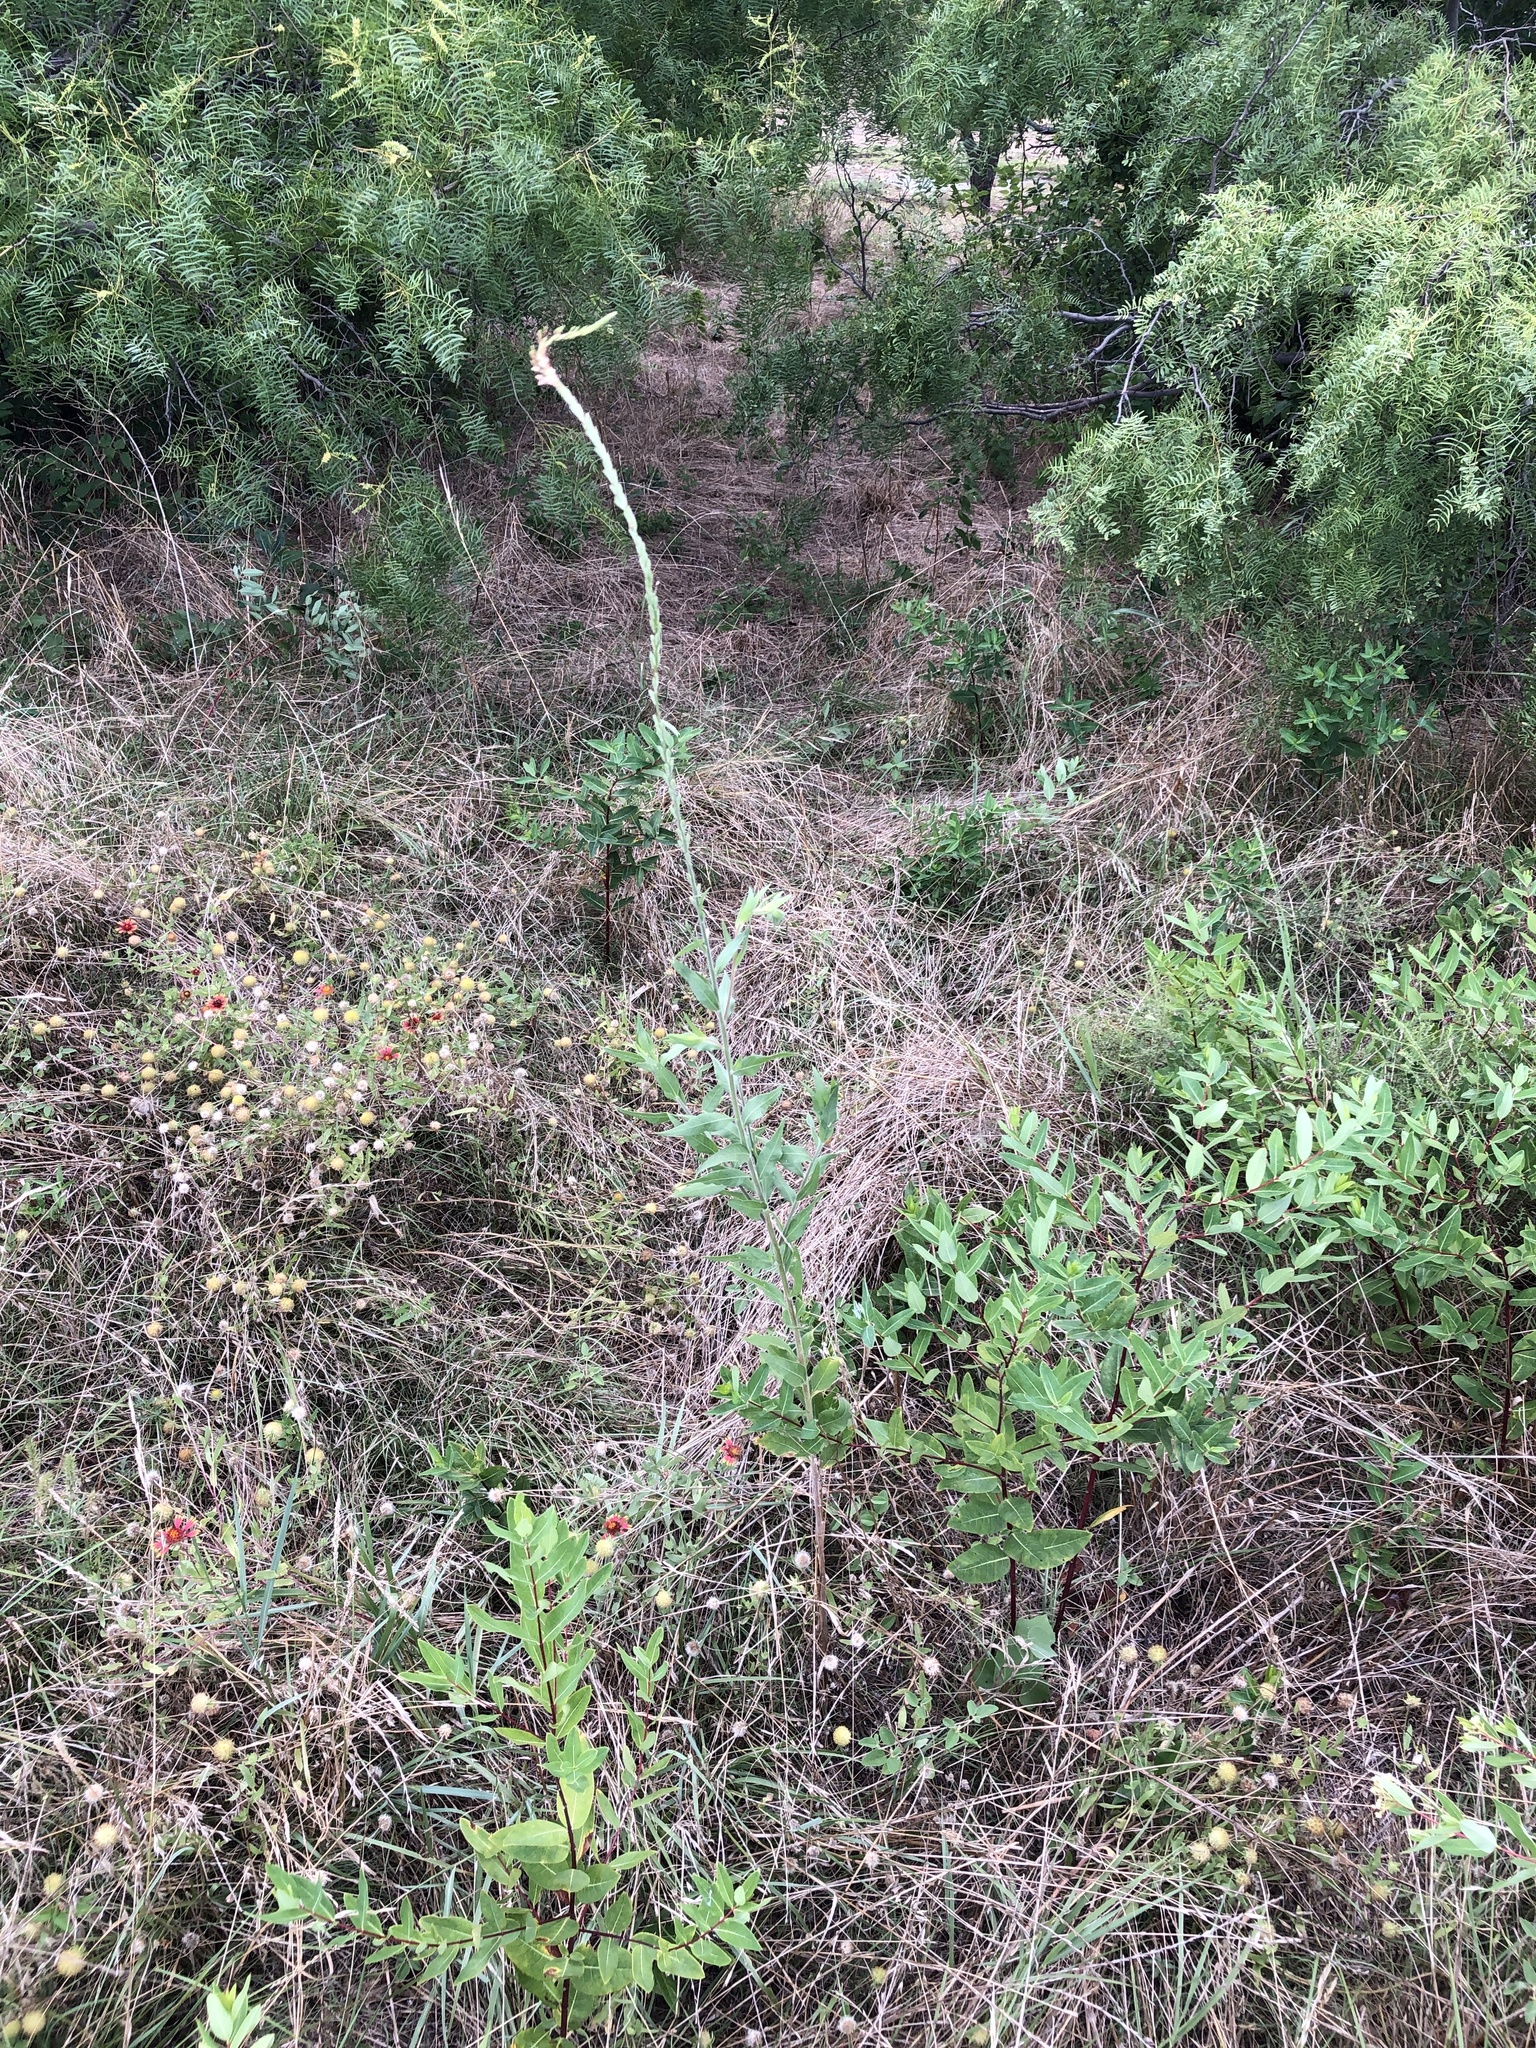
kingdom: Plantae
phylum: Tracheophyta
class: Magnoliopsida
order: Myrtales
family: Onagraceae
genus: Oenothera
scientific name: Oenothera curtiflora
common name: Velvetweed
